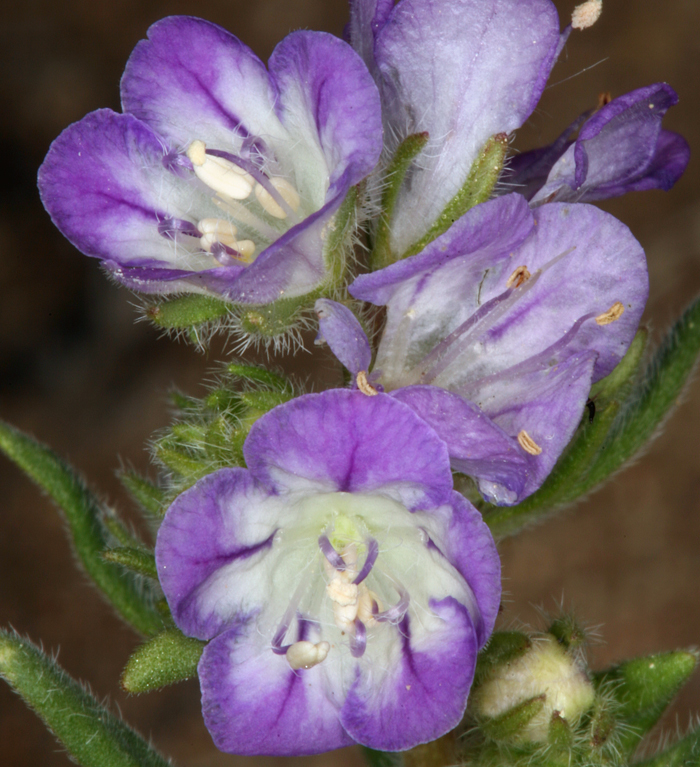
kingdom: Plantae
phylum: Tracheophyta
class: Magnoliopsida
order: Boraginales
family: Hydrophyllaceae
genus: Phacelia
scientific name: Phacelia linearis
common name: Linear-leaved phacelia
